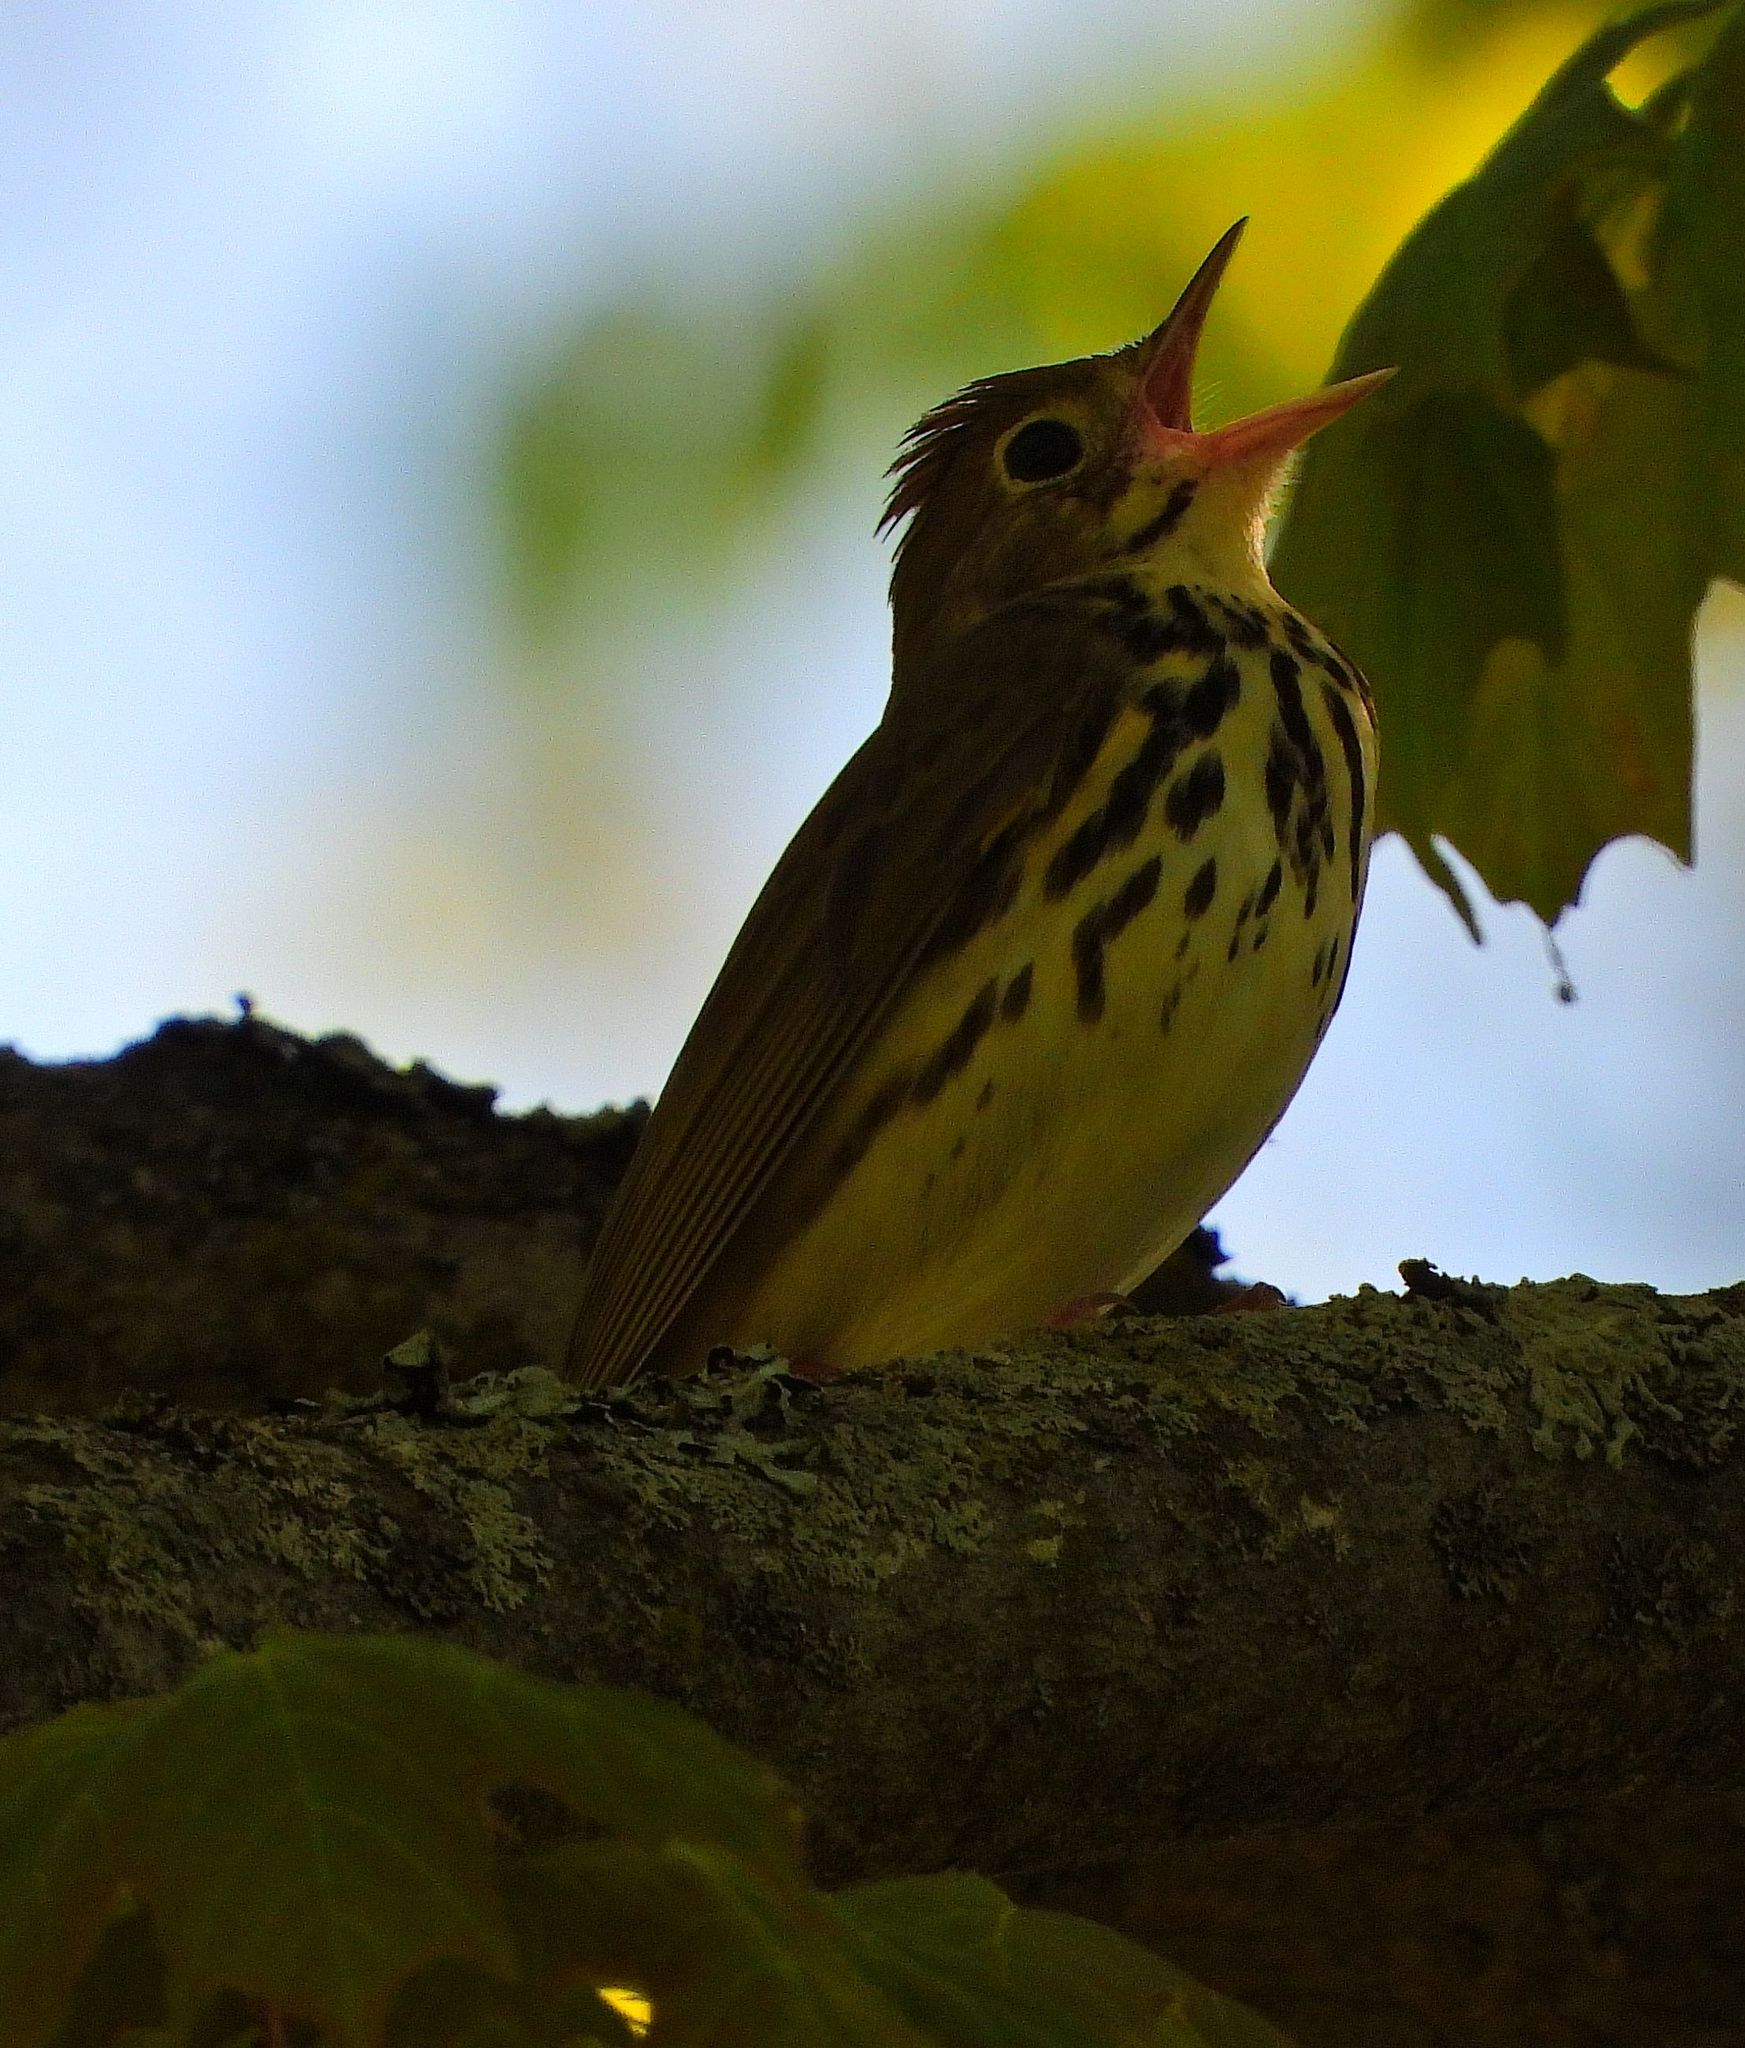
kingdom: Animalia
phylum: Chordata
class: Aves
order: Passeriformes
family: Parulidae
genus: Seiurus
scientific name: Seiurus aurocapilla
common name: Ovenbird
